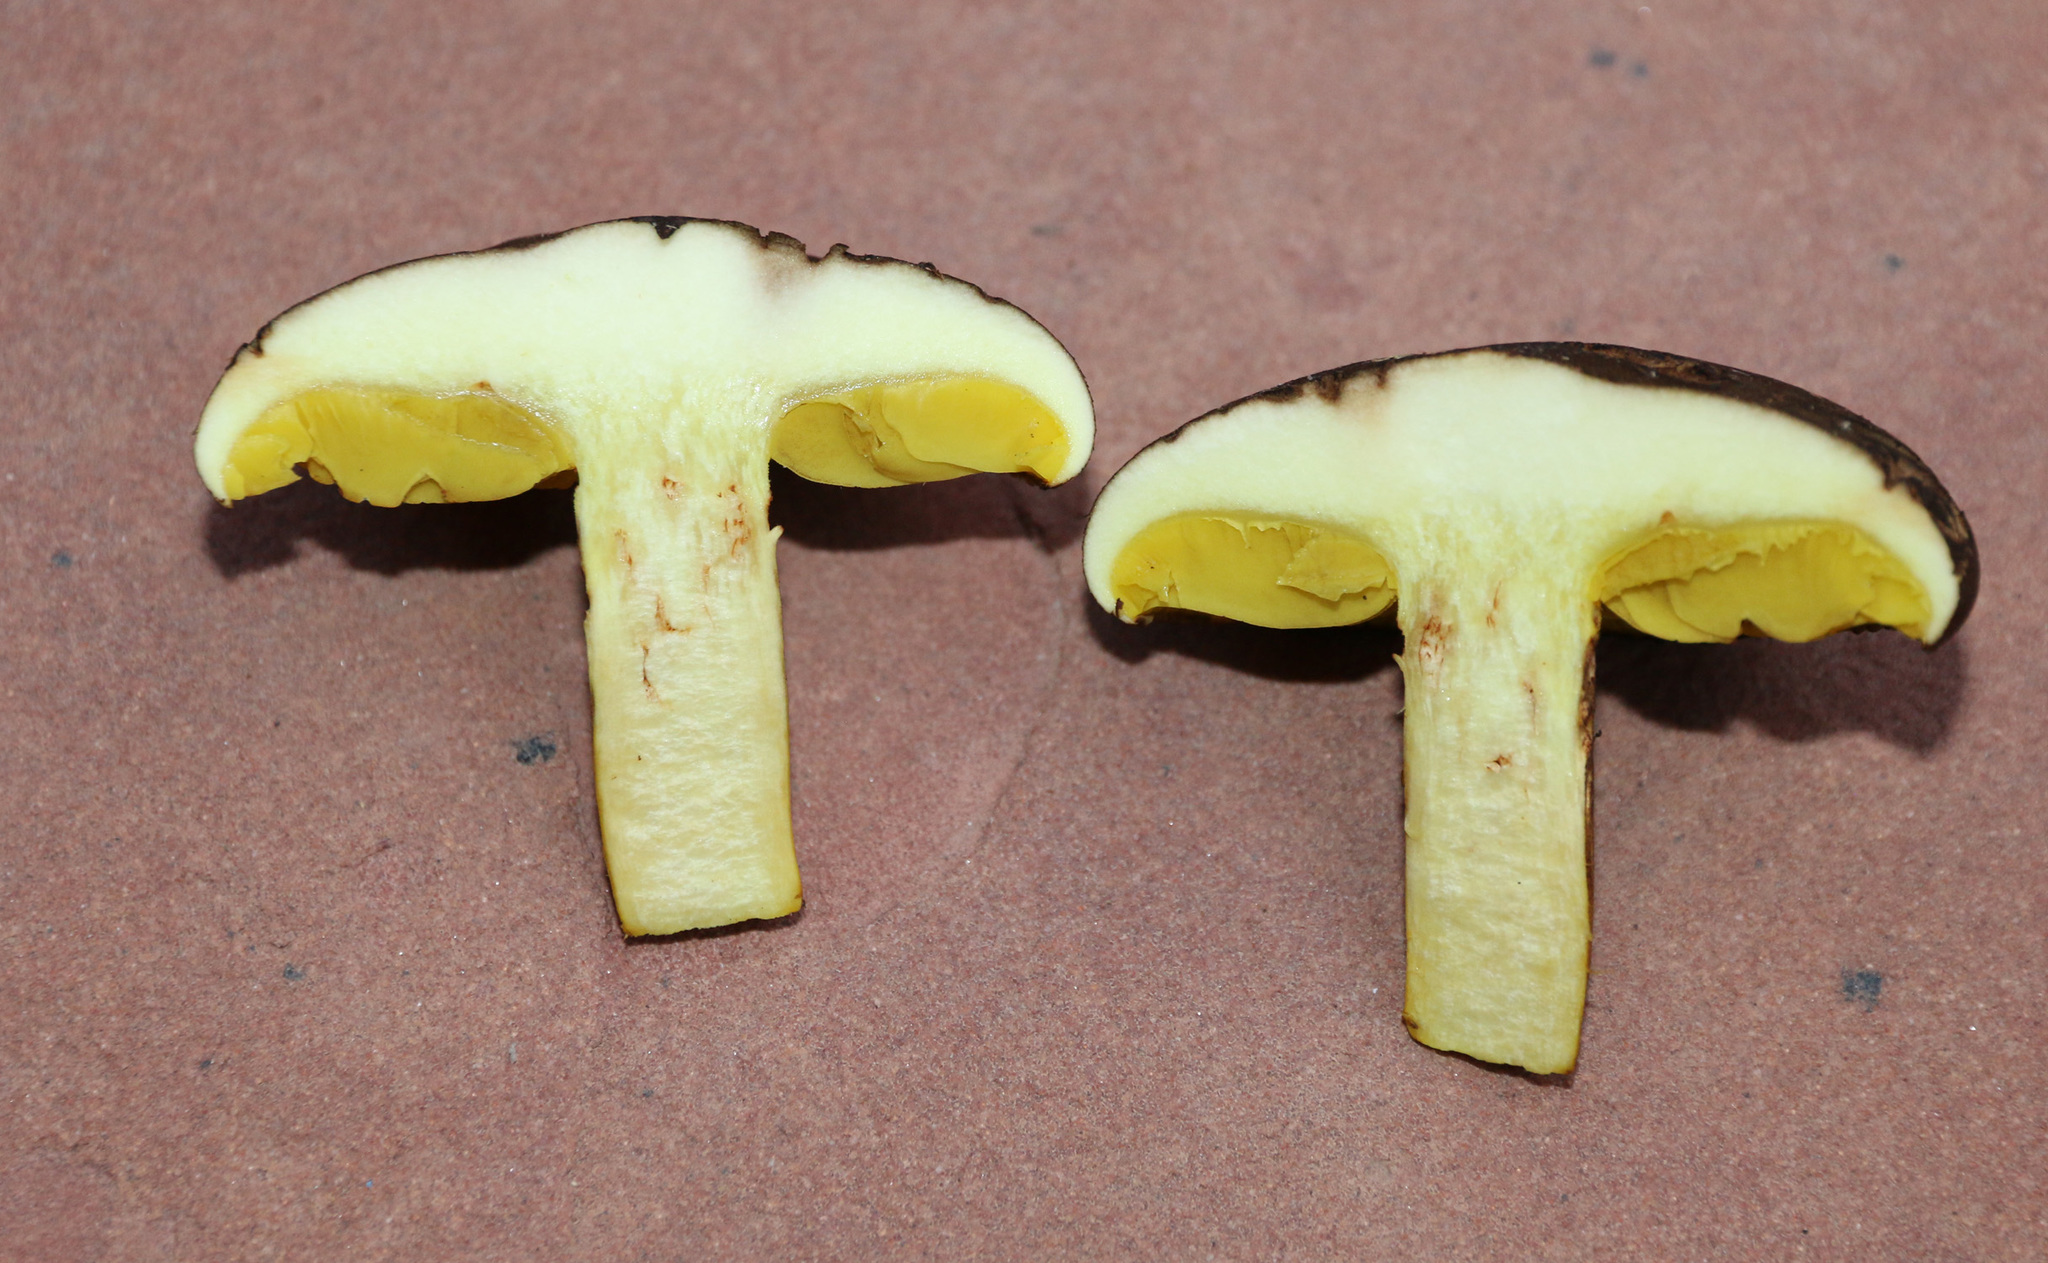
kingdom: Fungi
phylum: Basidiomycota
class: Agaricomycetes
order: Boletales
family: Boletaceae
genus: Phylloporus
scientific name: Phylloporus arenicola
